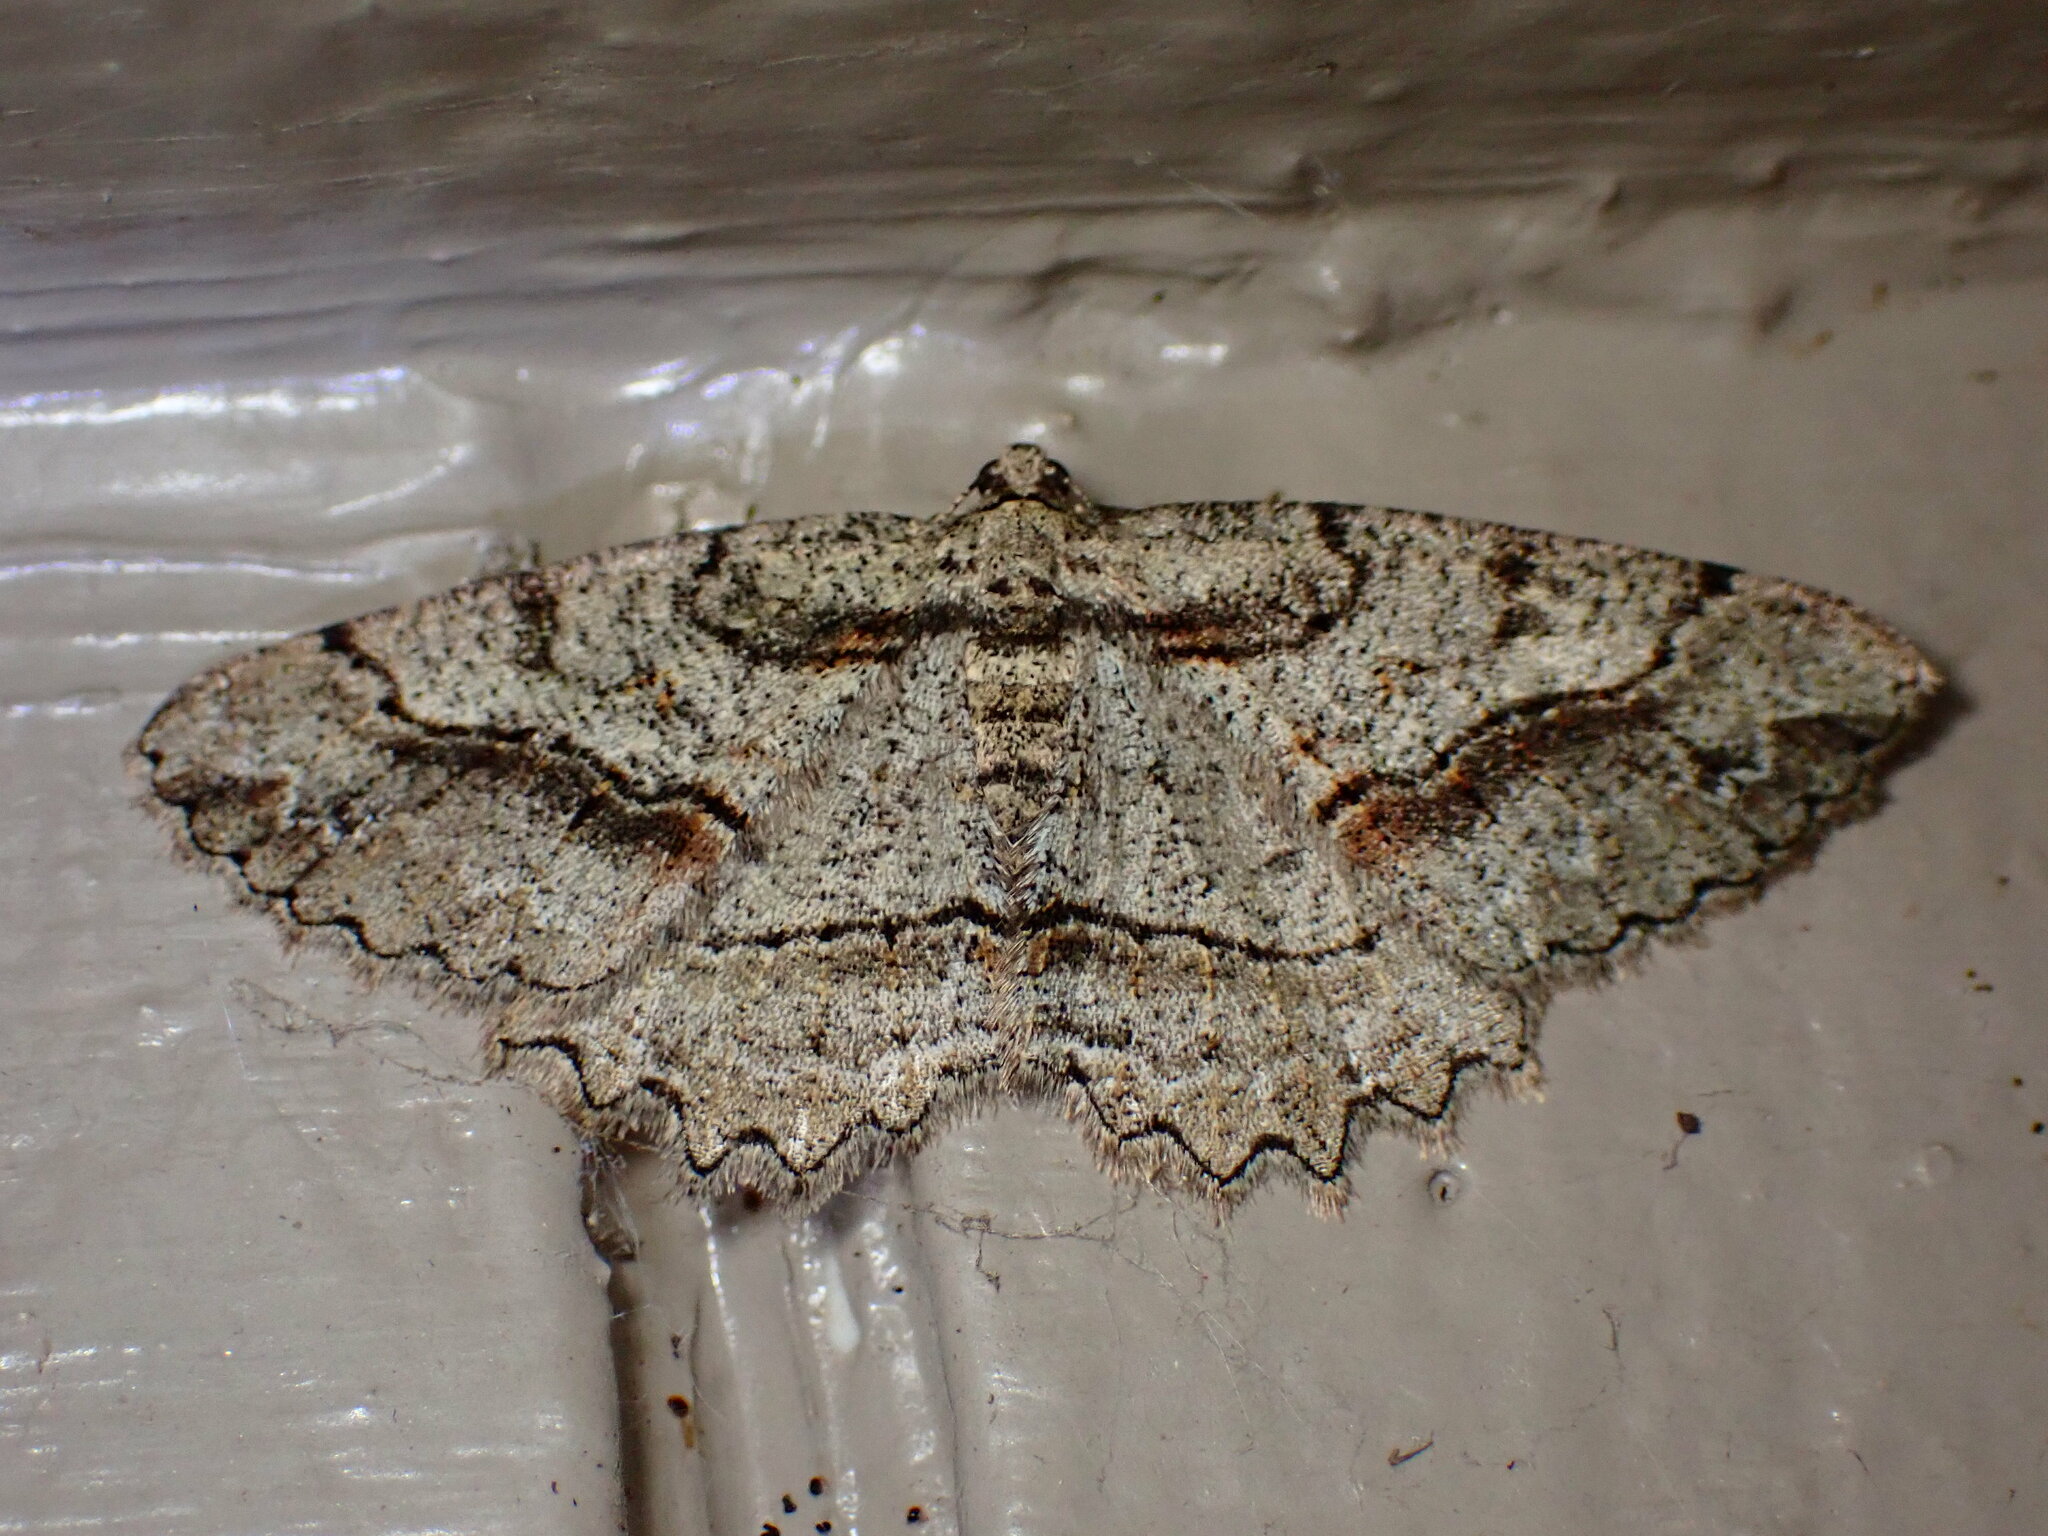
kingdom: Animalia
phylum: Arthropoda
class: Insecta
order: Lepidoptera
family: Geometridae
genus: Neoalcis
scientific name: Neoalcis californiaria
